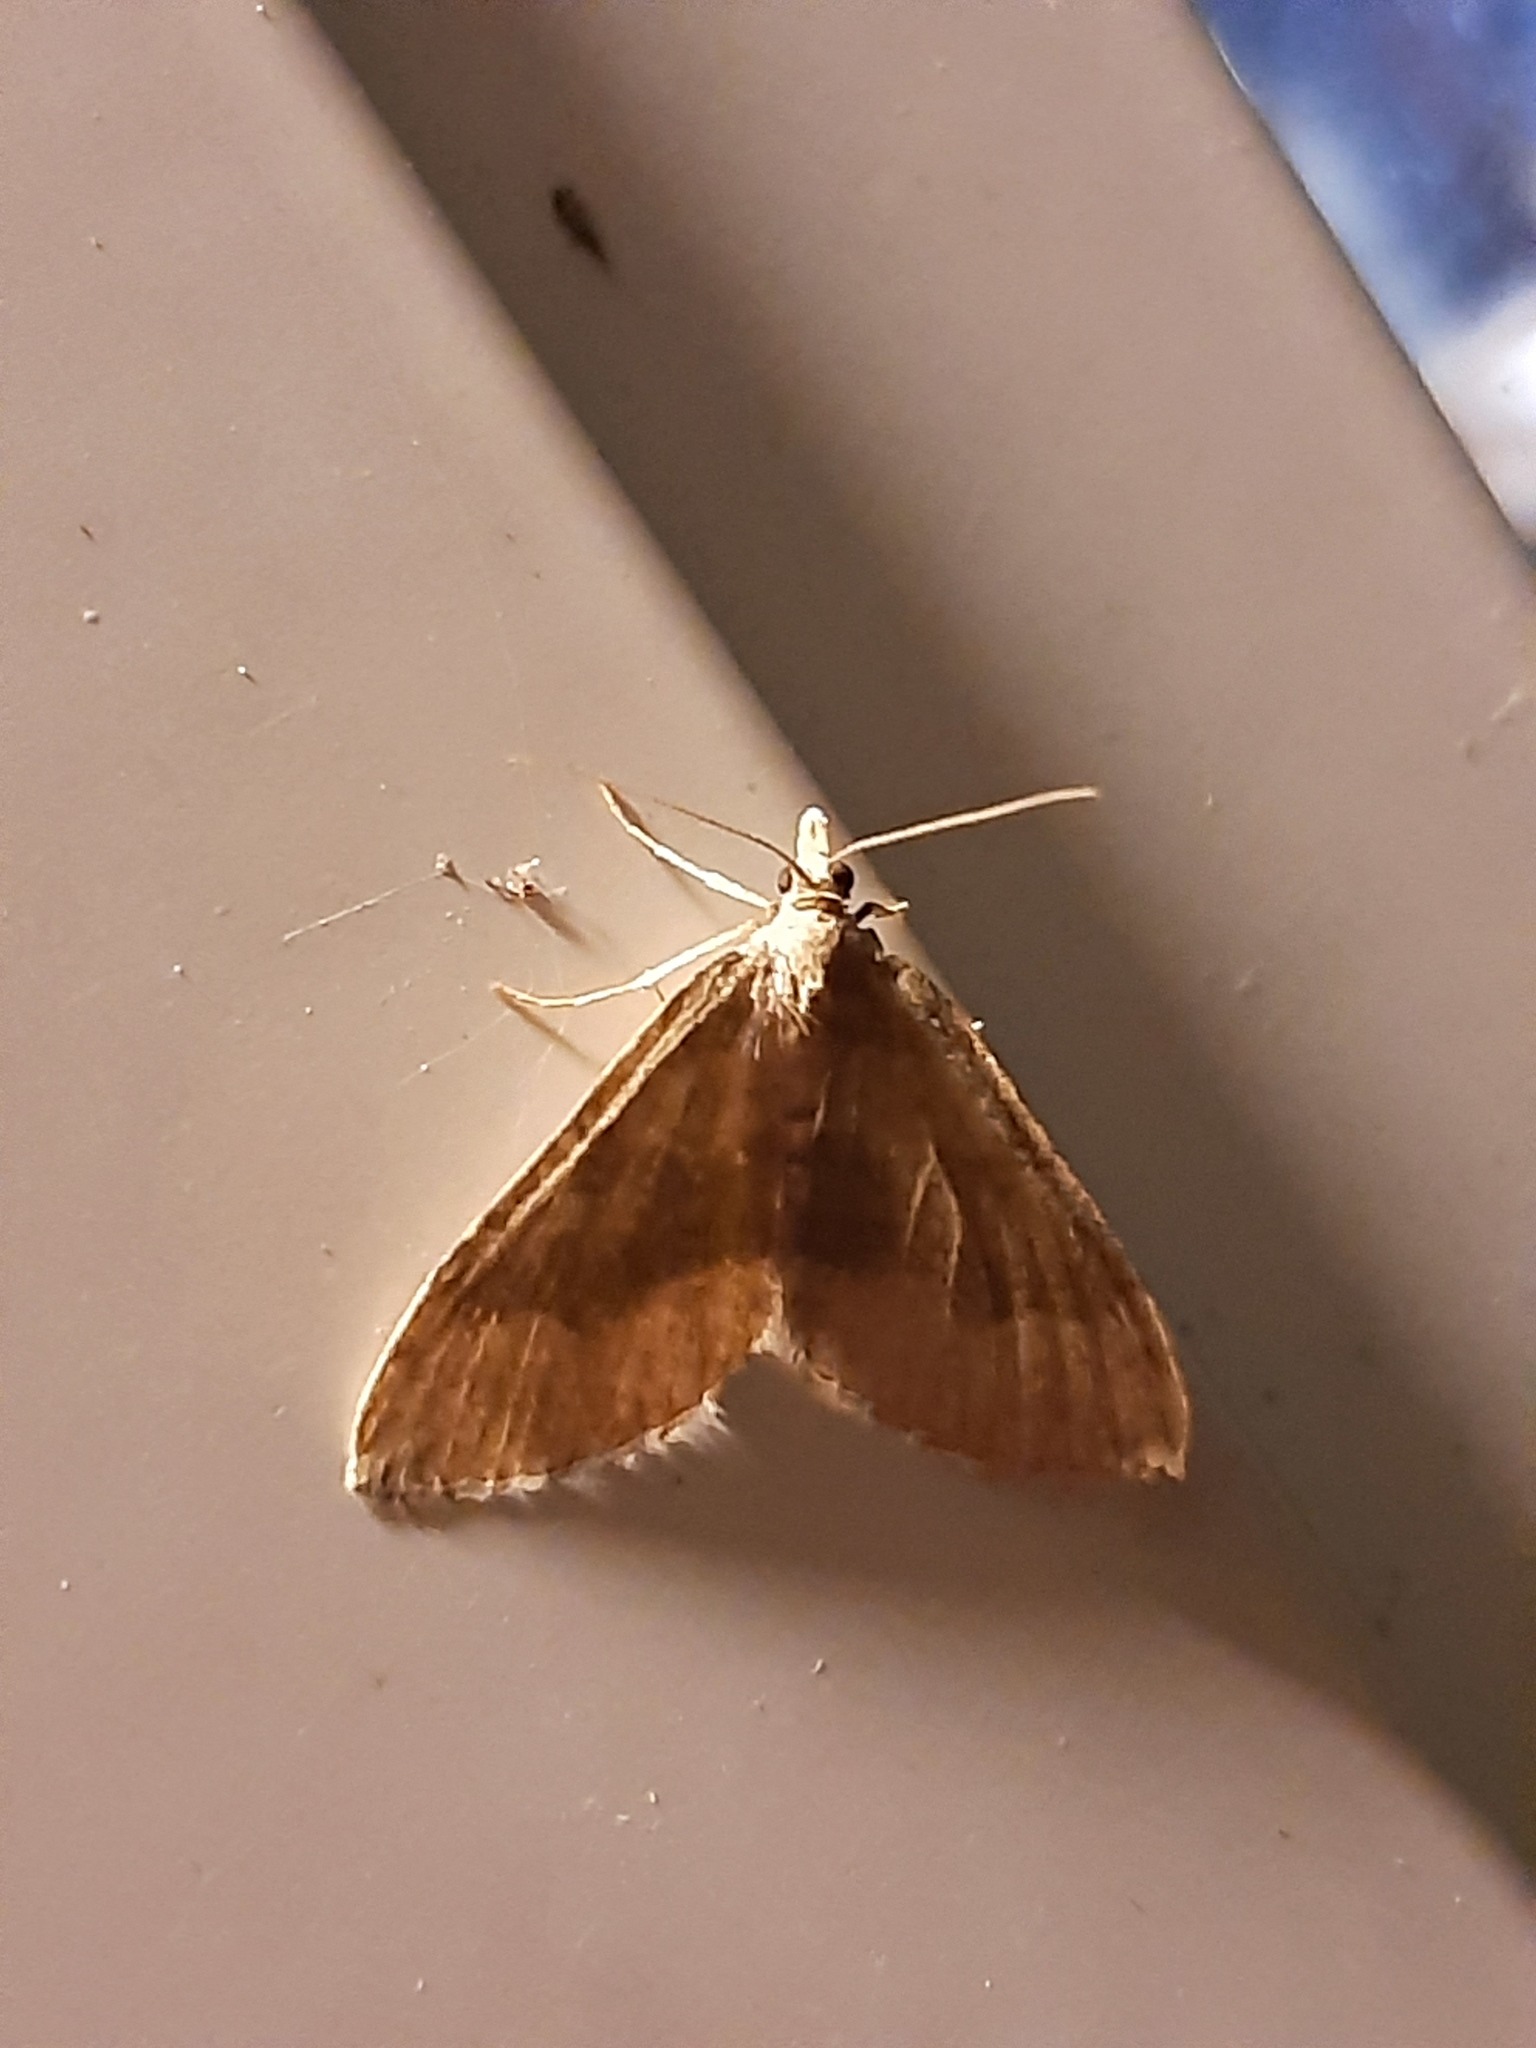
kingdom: Animalia
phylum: Arthropoda
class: Insecta
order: Lepidoptera
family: Geometridae
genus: Epyaxa
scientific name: Epyaxa rosearia
